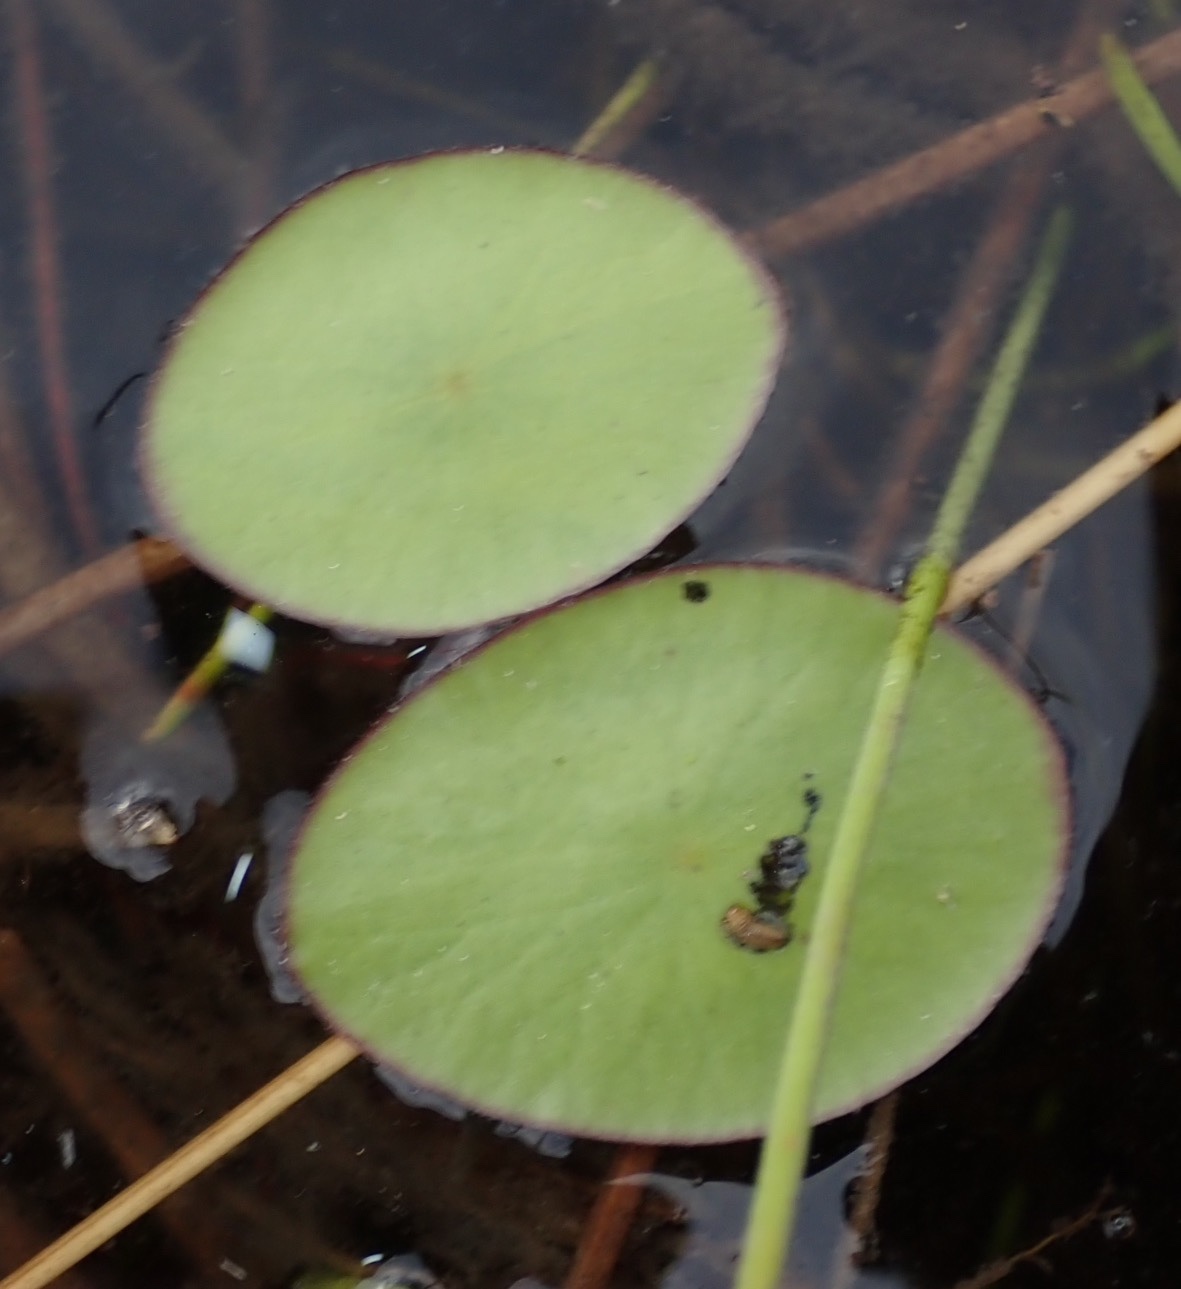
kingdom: Plantae
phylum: Tracheophyta
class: Magnoliopsida
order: Nymphaeales
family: Cabombaceae
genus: Brasenia
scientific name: Brasenia schreberi
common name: Water-shield
